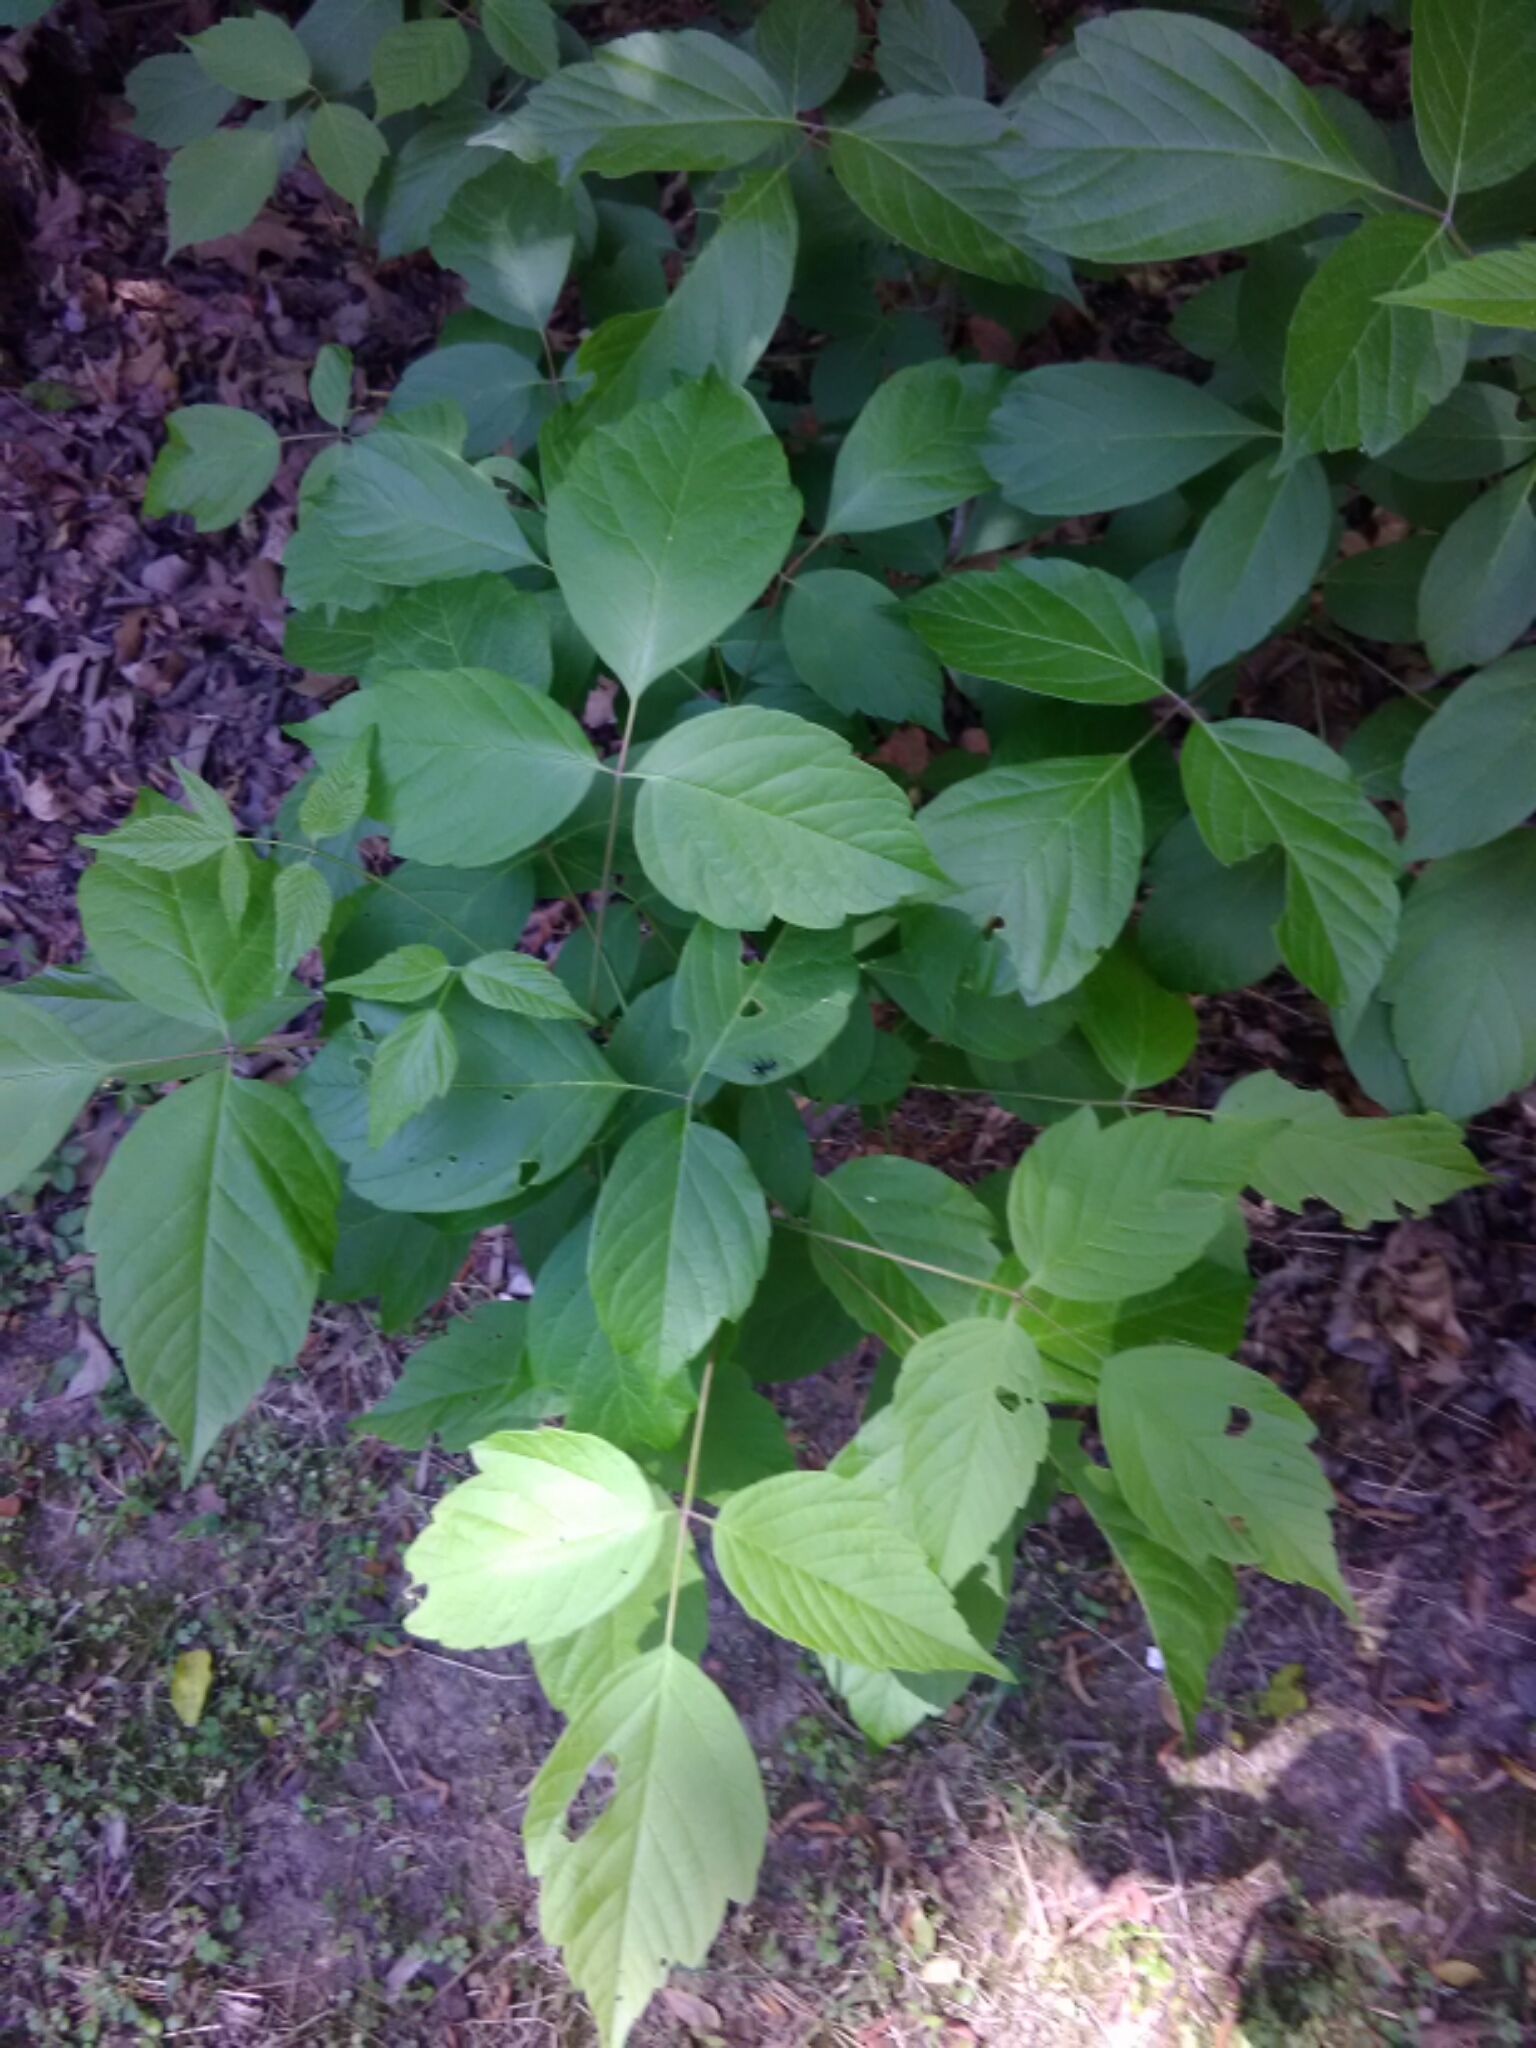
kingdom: Plantae
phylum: Tracheophyta
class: Magnoliopsida
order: Sapindales
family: Anacardiaceae
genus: Toxicodendron
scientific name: Toxicodendron radicans
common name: Poison ivy
